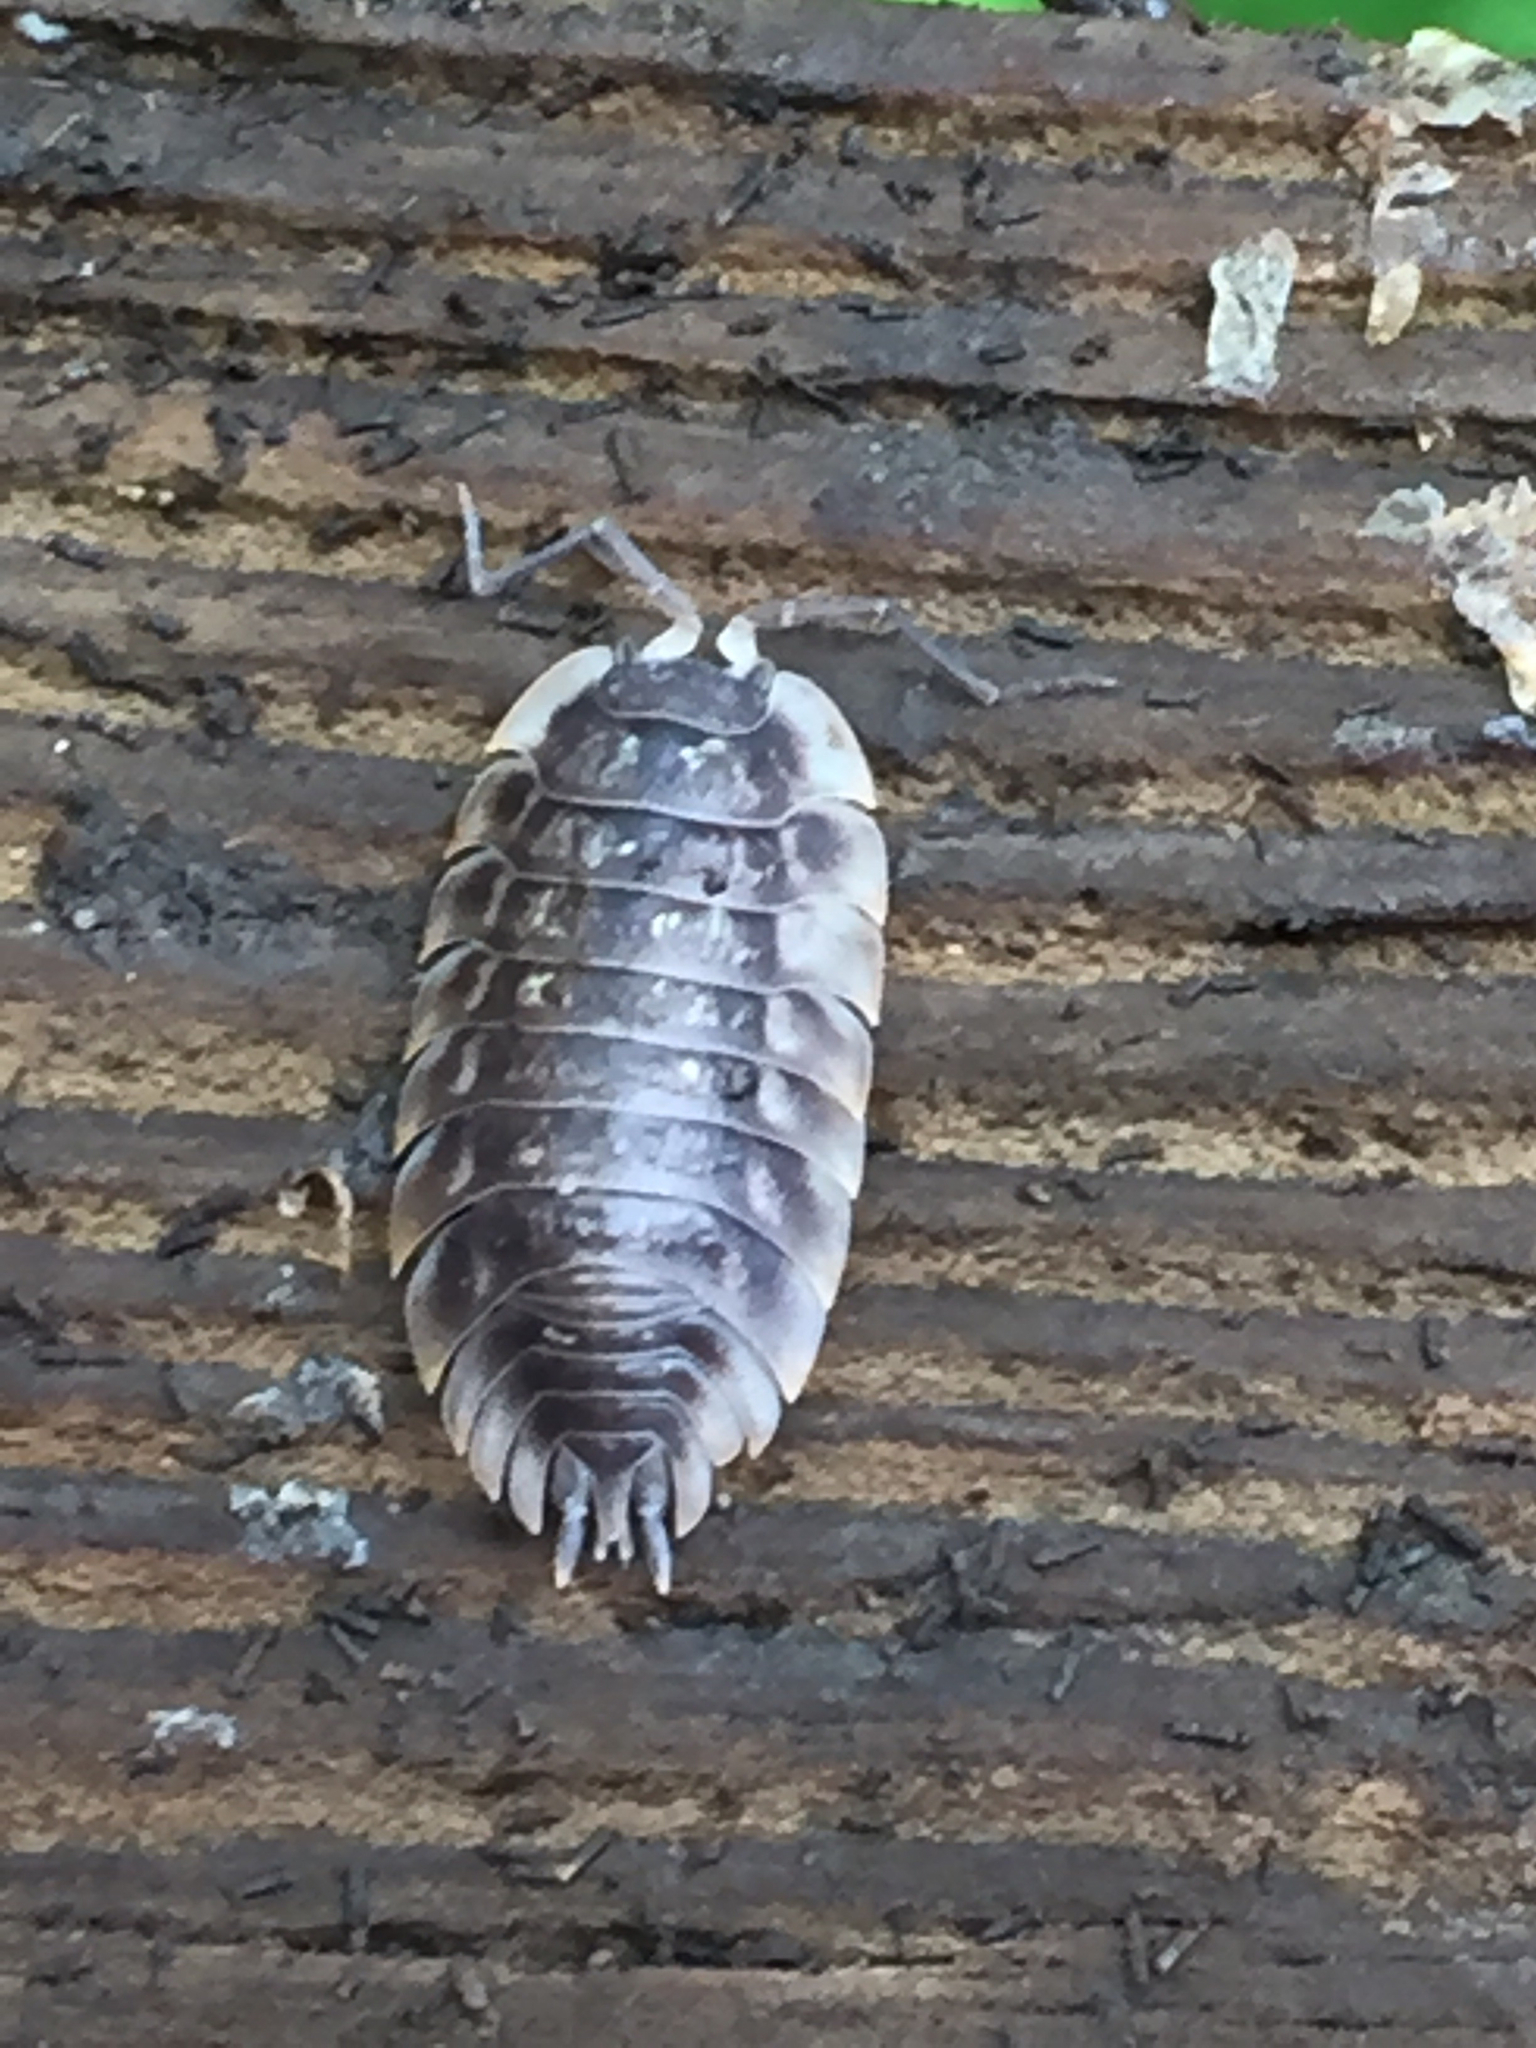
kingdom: Animalia
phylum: Arthropoda
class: Malacostraca
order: Isopoda
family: Oniscidae
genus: Oniscus
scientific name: Oniscus asellus
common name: Common shiny woodlouse
